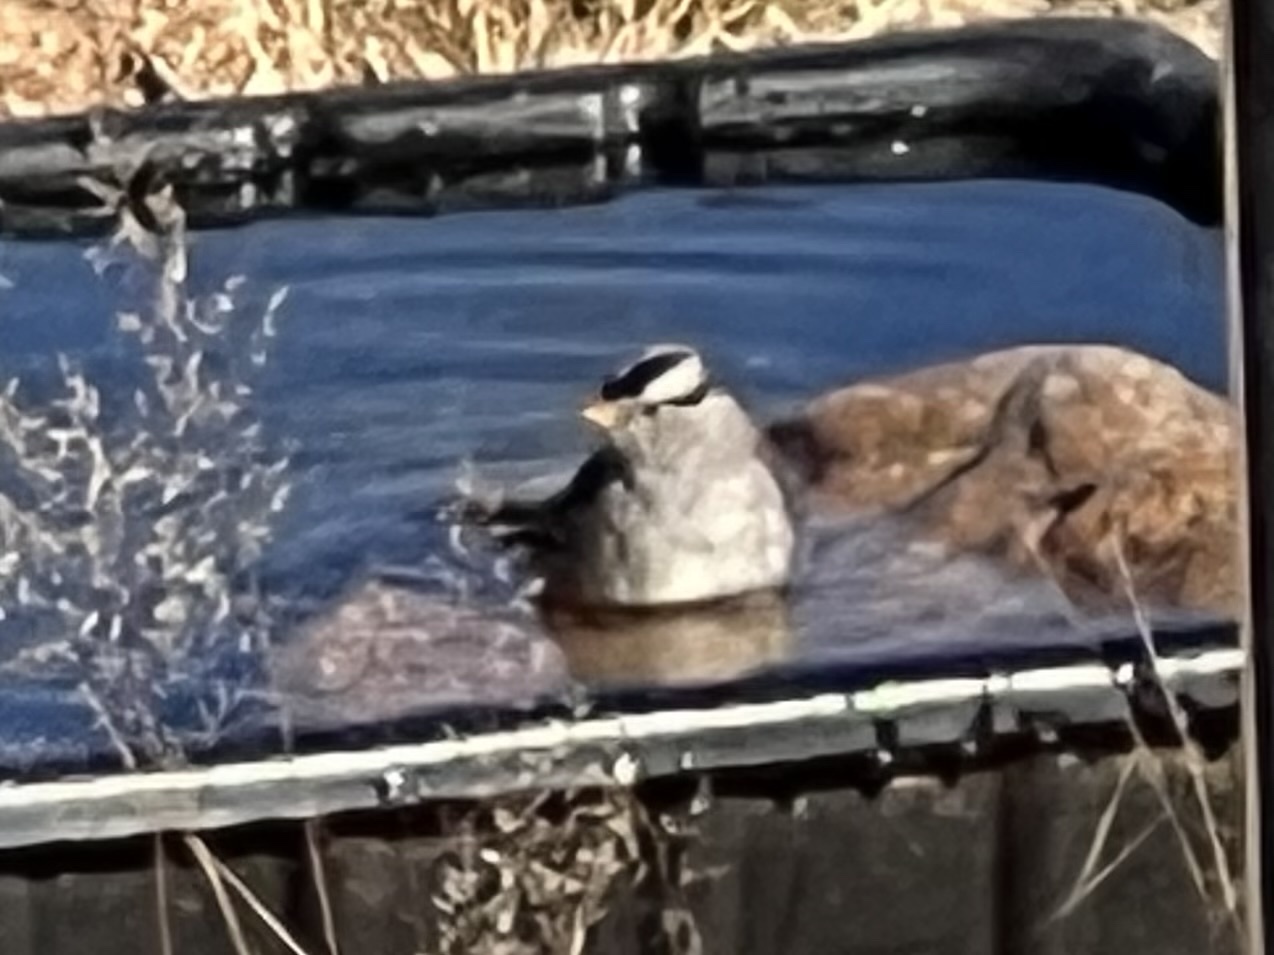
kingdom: Animalia
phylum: Chordata
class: Aves
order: Passeriformes
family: Passerellidae
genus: Zonotrichia
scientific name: Zonotrichia leucophrys
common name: White-crowned sparrow
